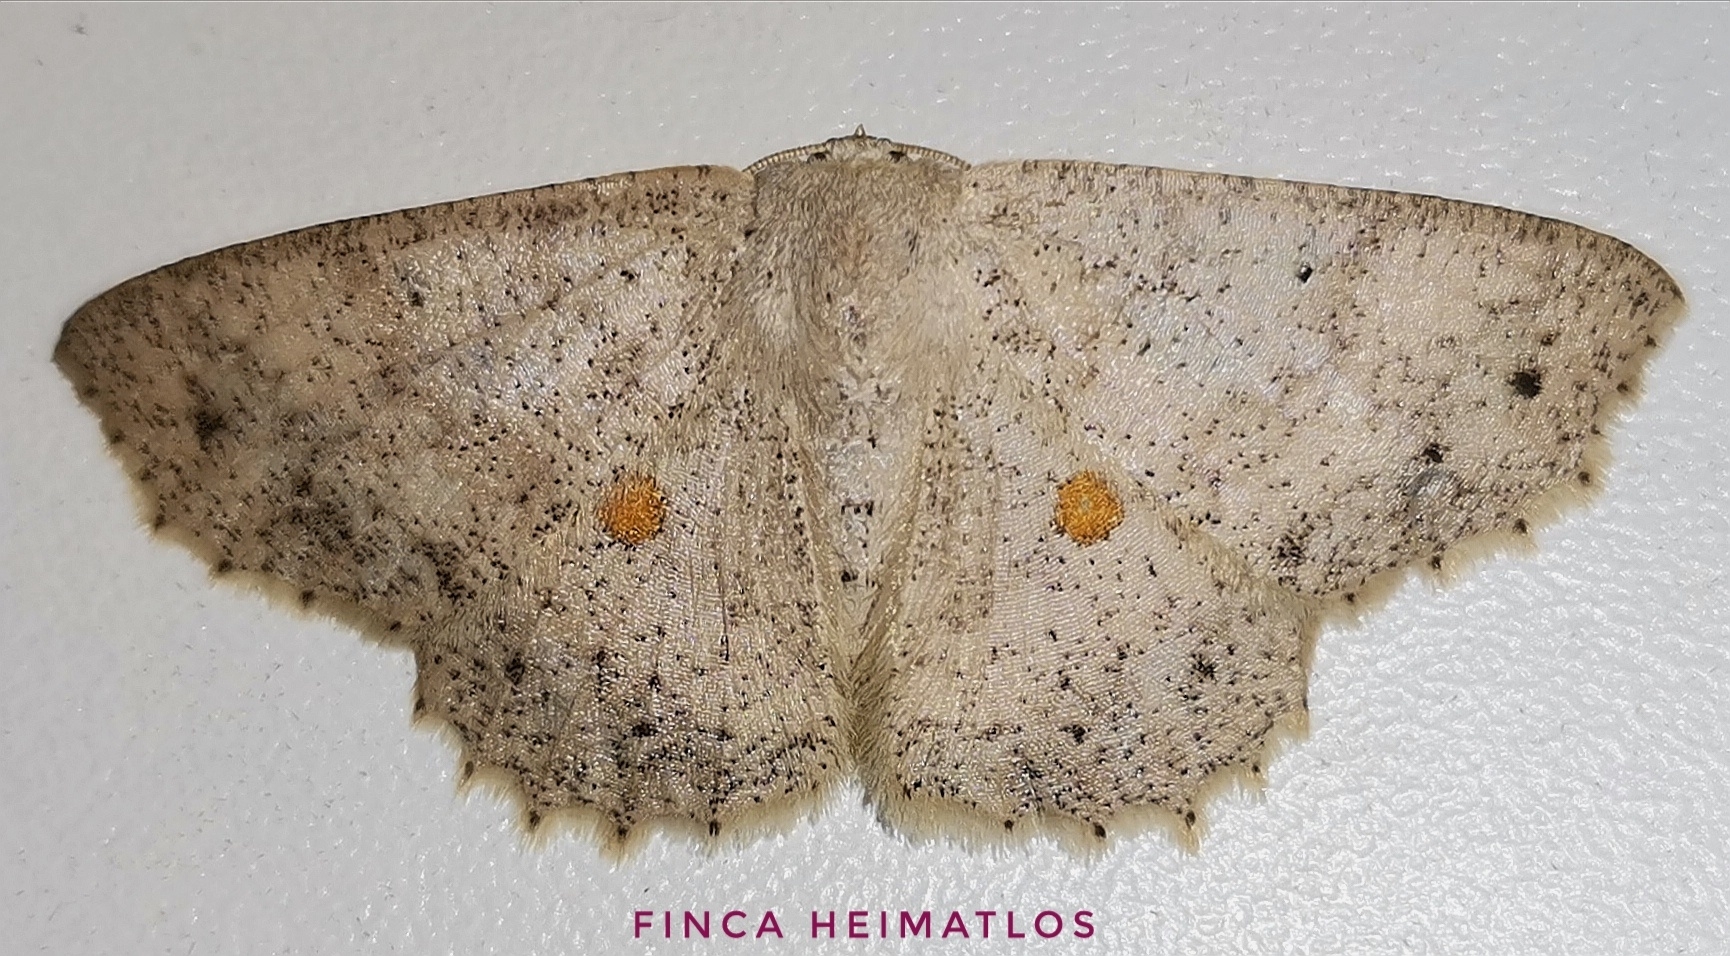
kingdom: Animalia
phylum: Arthropoda
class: Insecta
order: Lepidoptera
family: Geometridae
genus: Isochromodes
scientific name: Isochromodes epioneata
